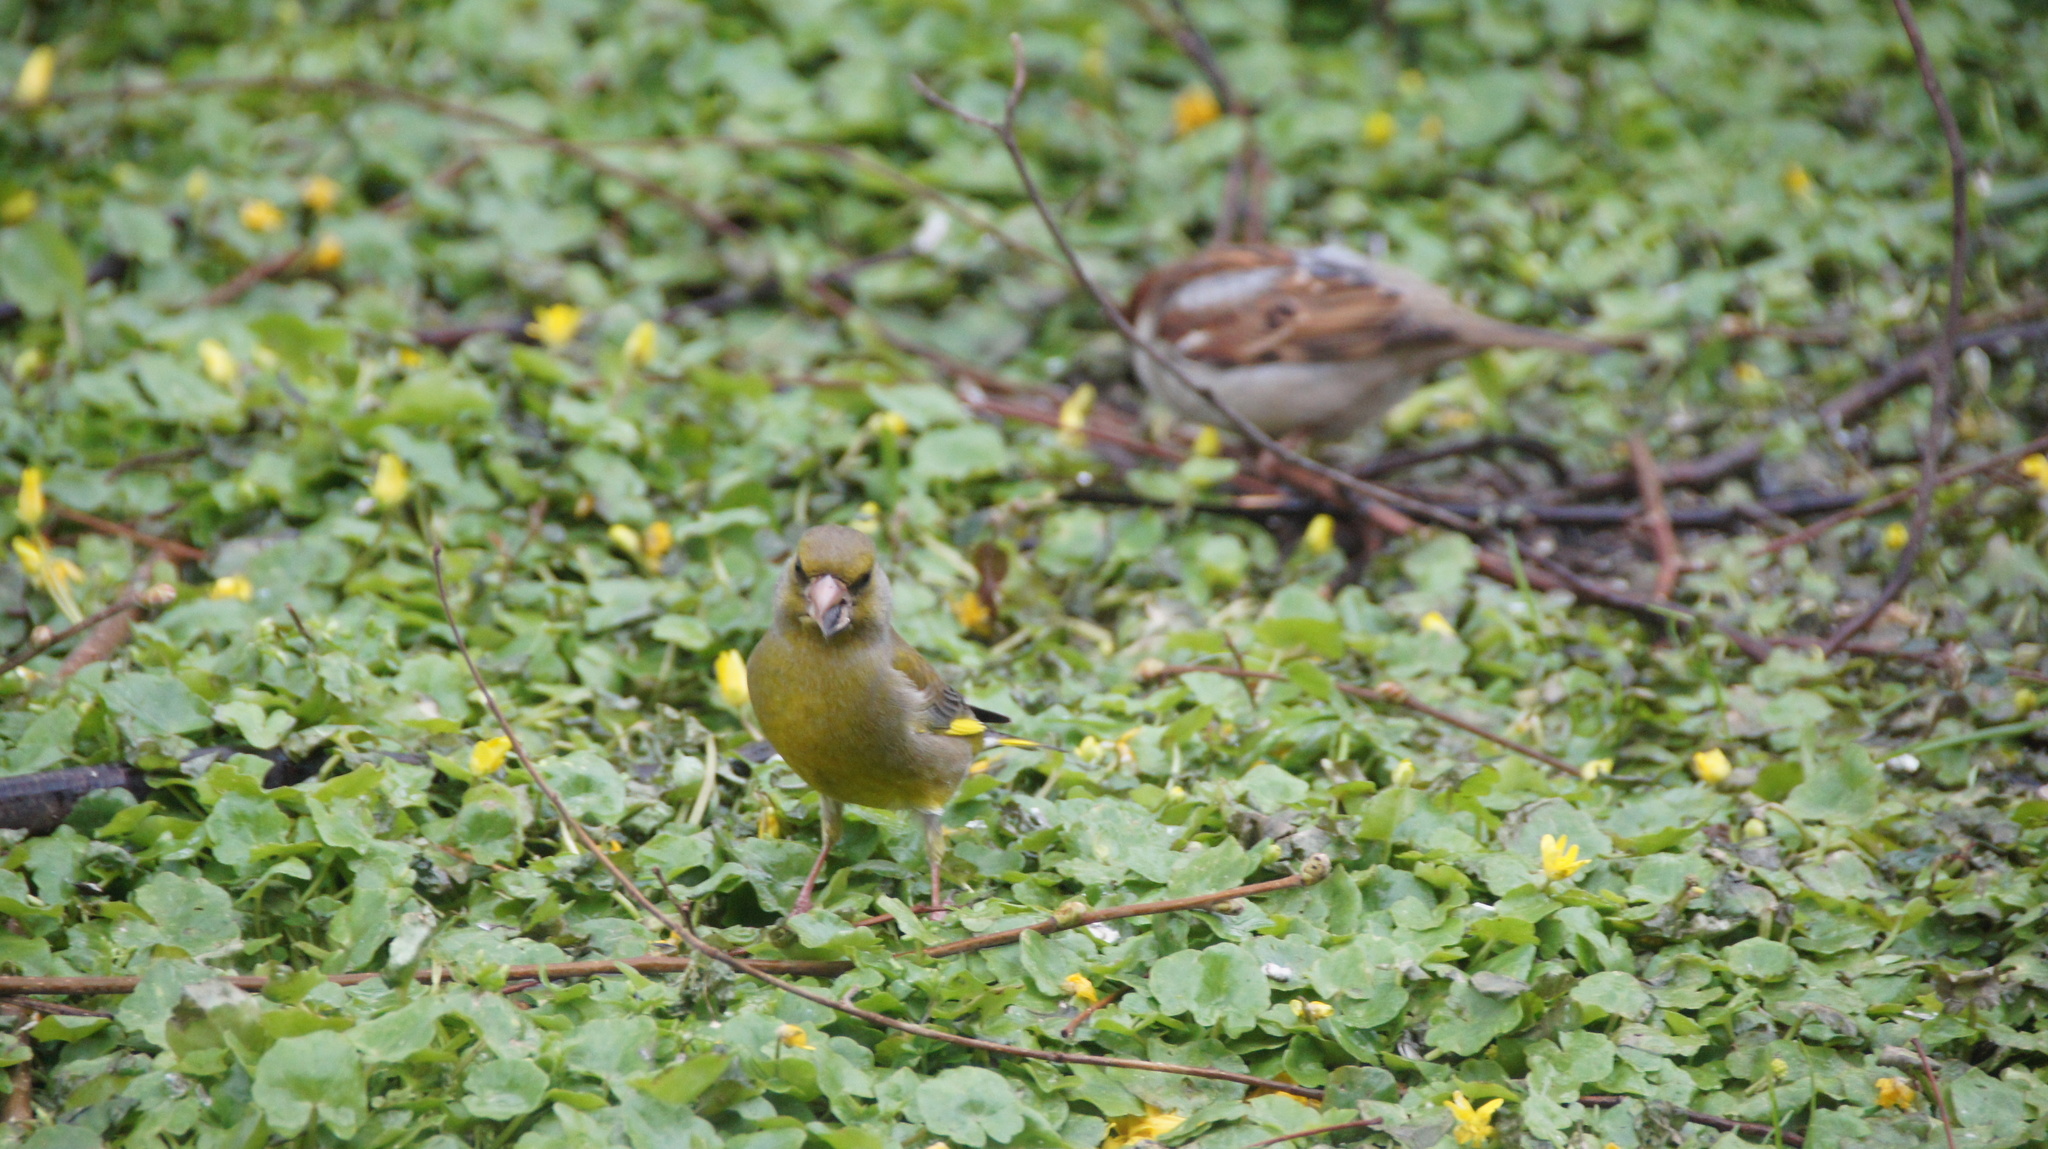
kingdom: Plantae
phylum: Tracheophyta
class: Liliopsida
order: Poales
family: Poaceae
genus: Chloris
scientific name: Chloris chloris
